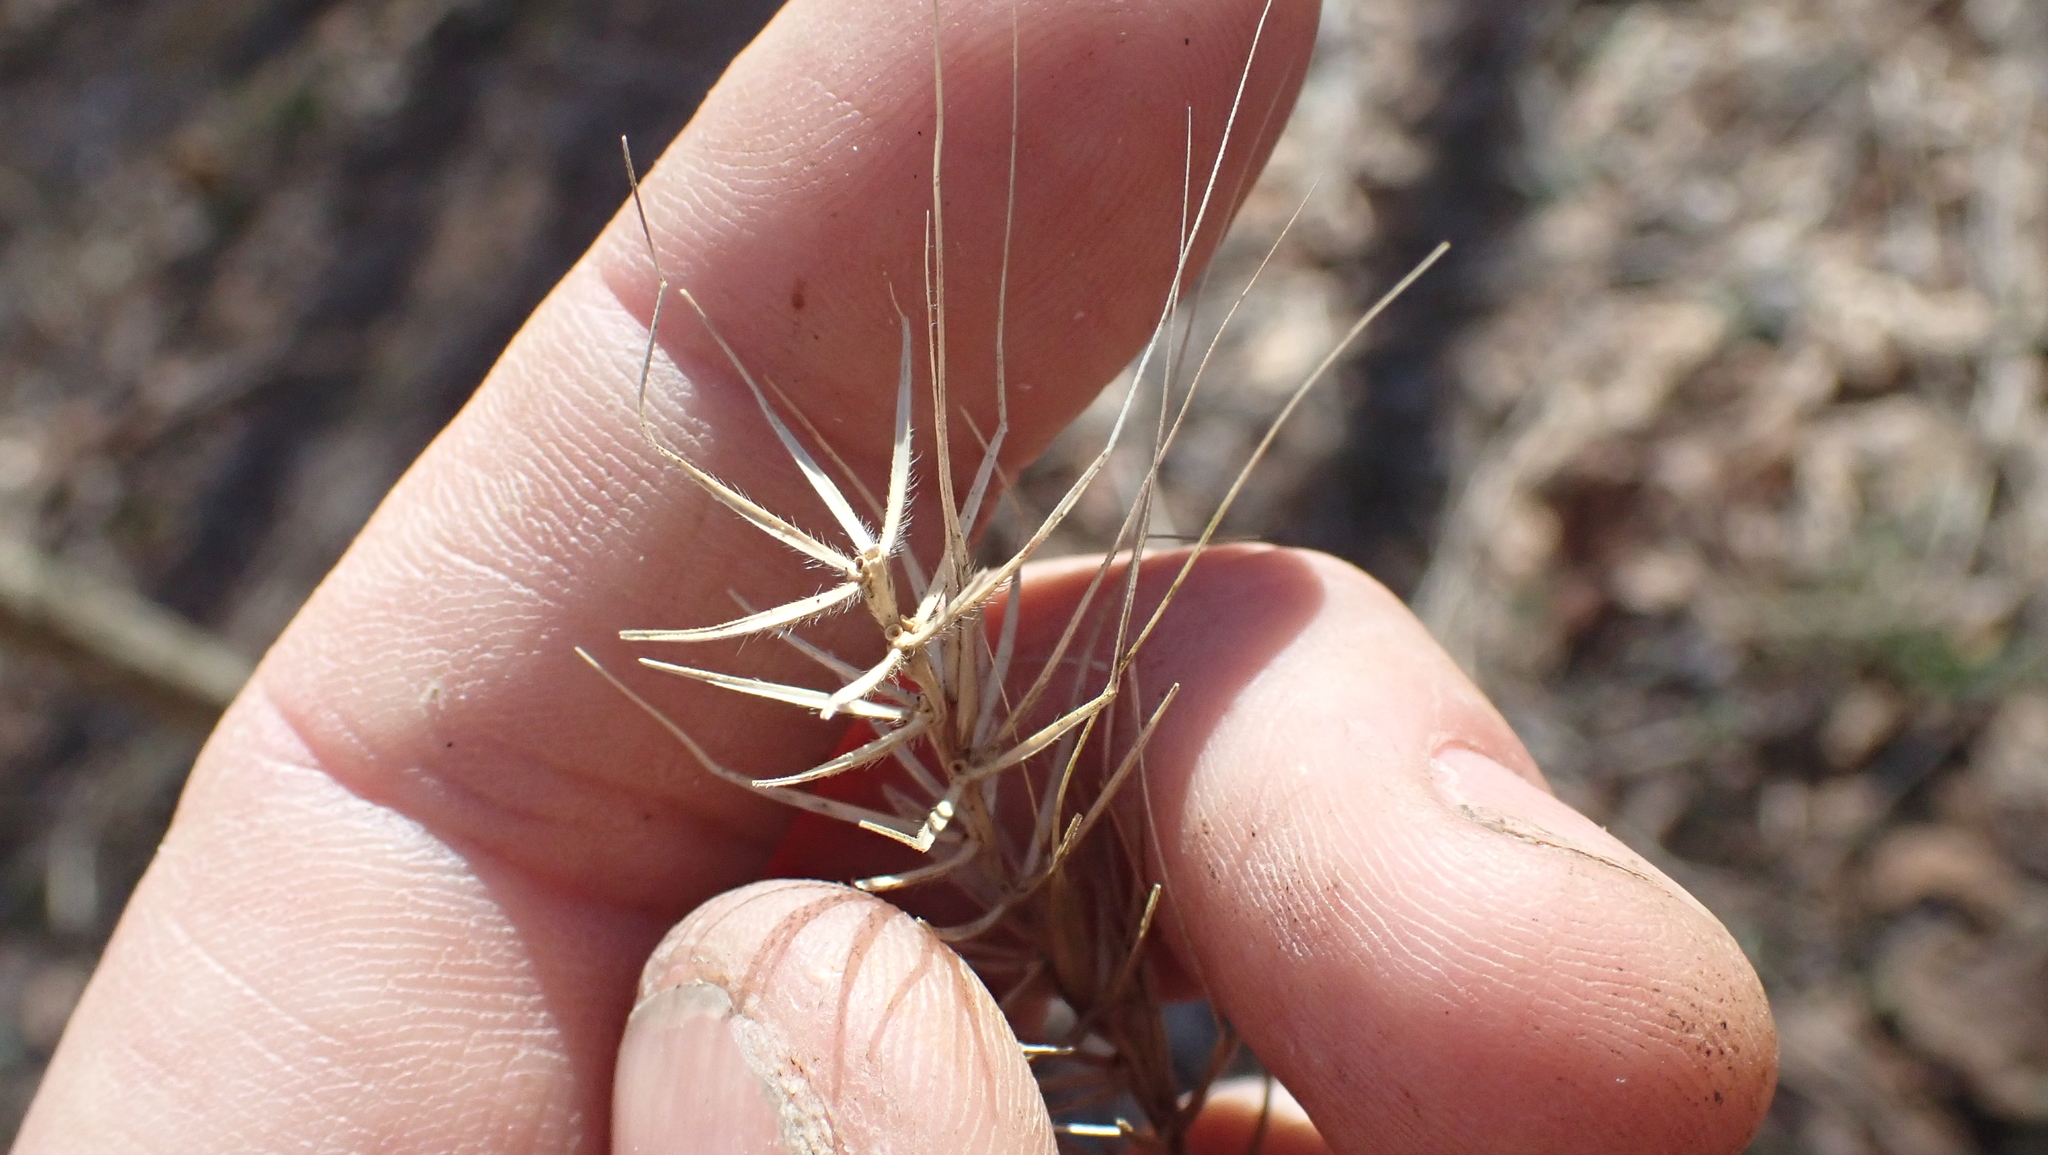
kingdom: Plantae
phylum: Tracheophyta
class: Liliopsida
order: Poales
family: Poaceae
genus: Elymus
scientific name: Elymus villosus
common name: Downy wild rye
